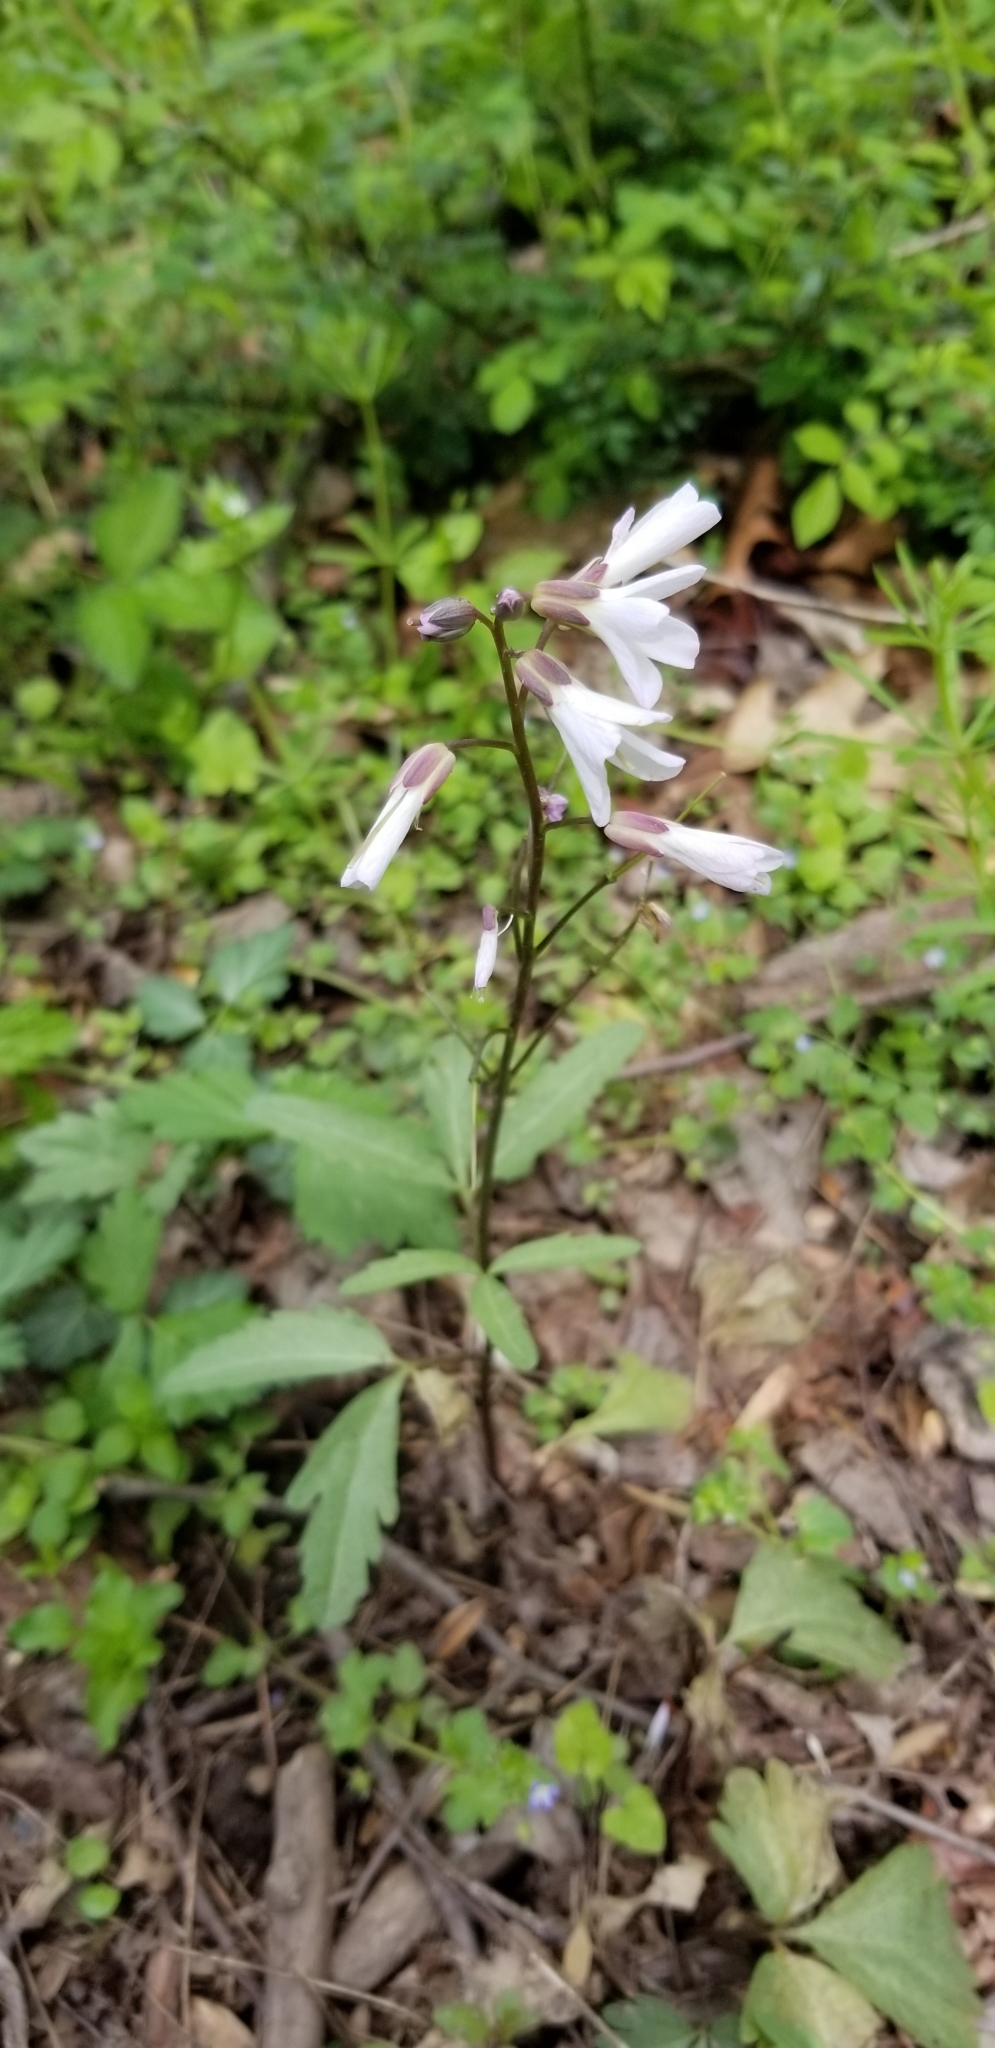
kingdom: Plantae
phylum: Tracheophyta
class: Magnoliopsida
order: Brassicales
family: Brassicaceae
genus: Cardamine
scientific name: Cardamine angustata
